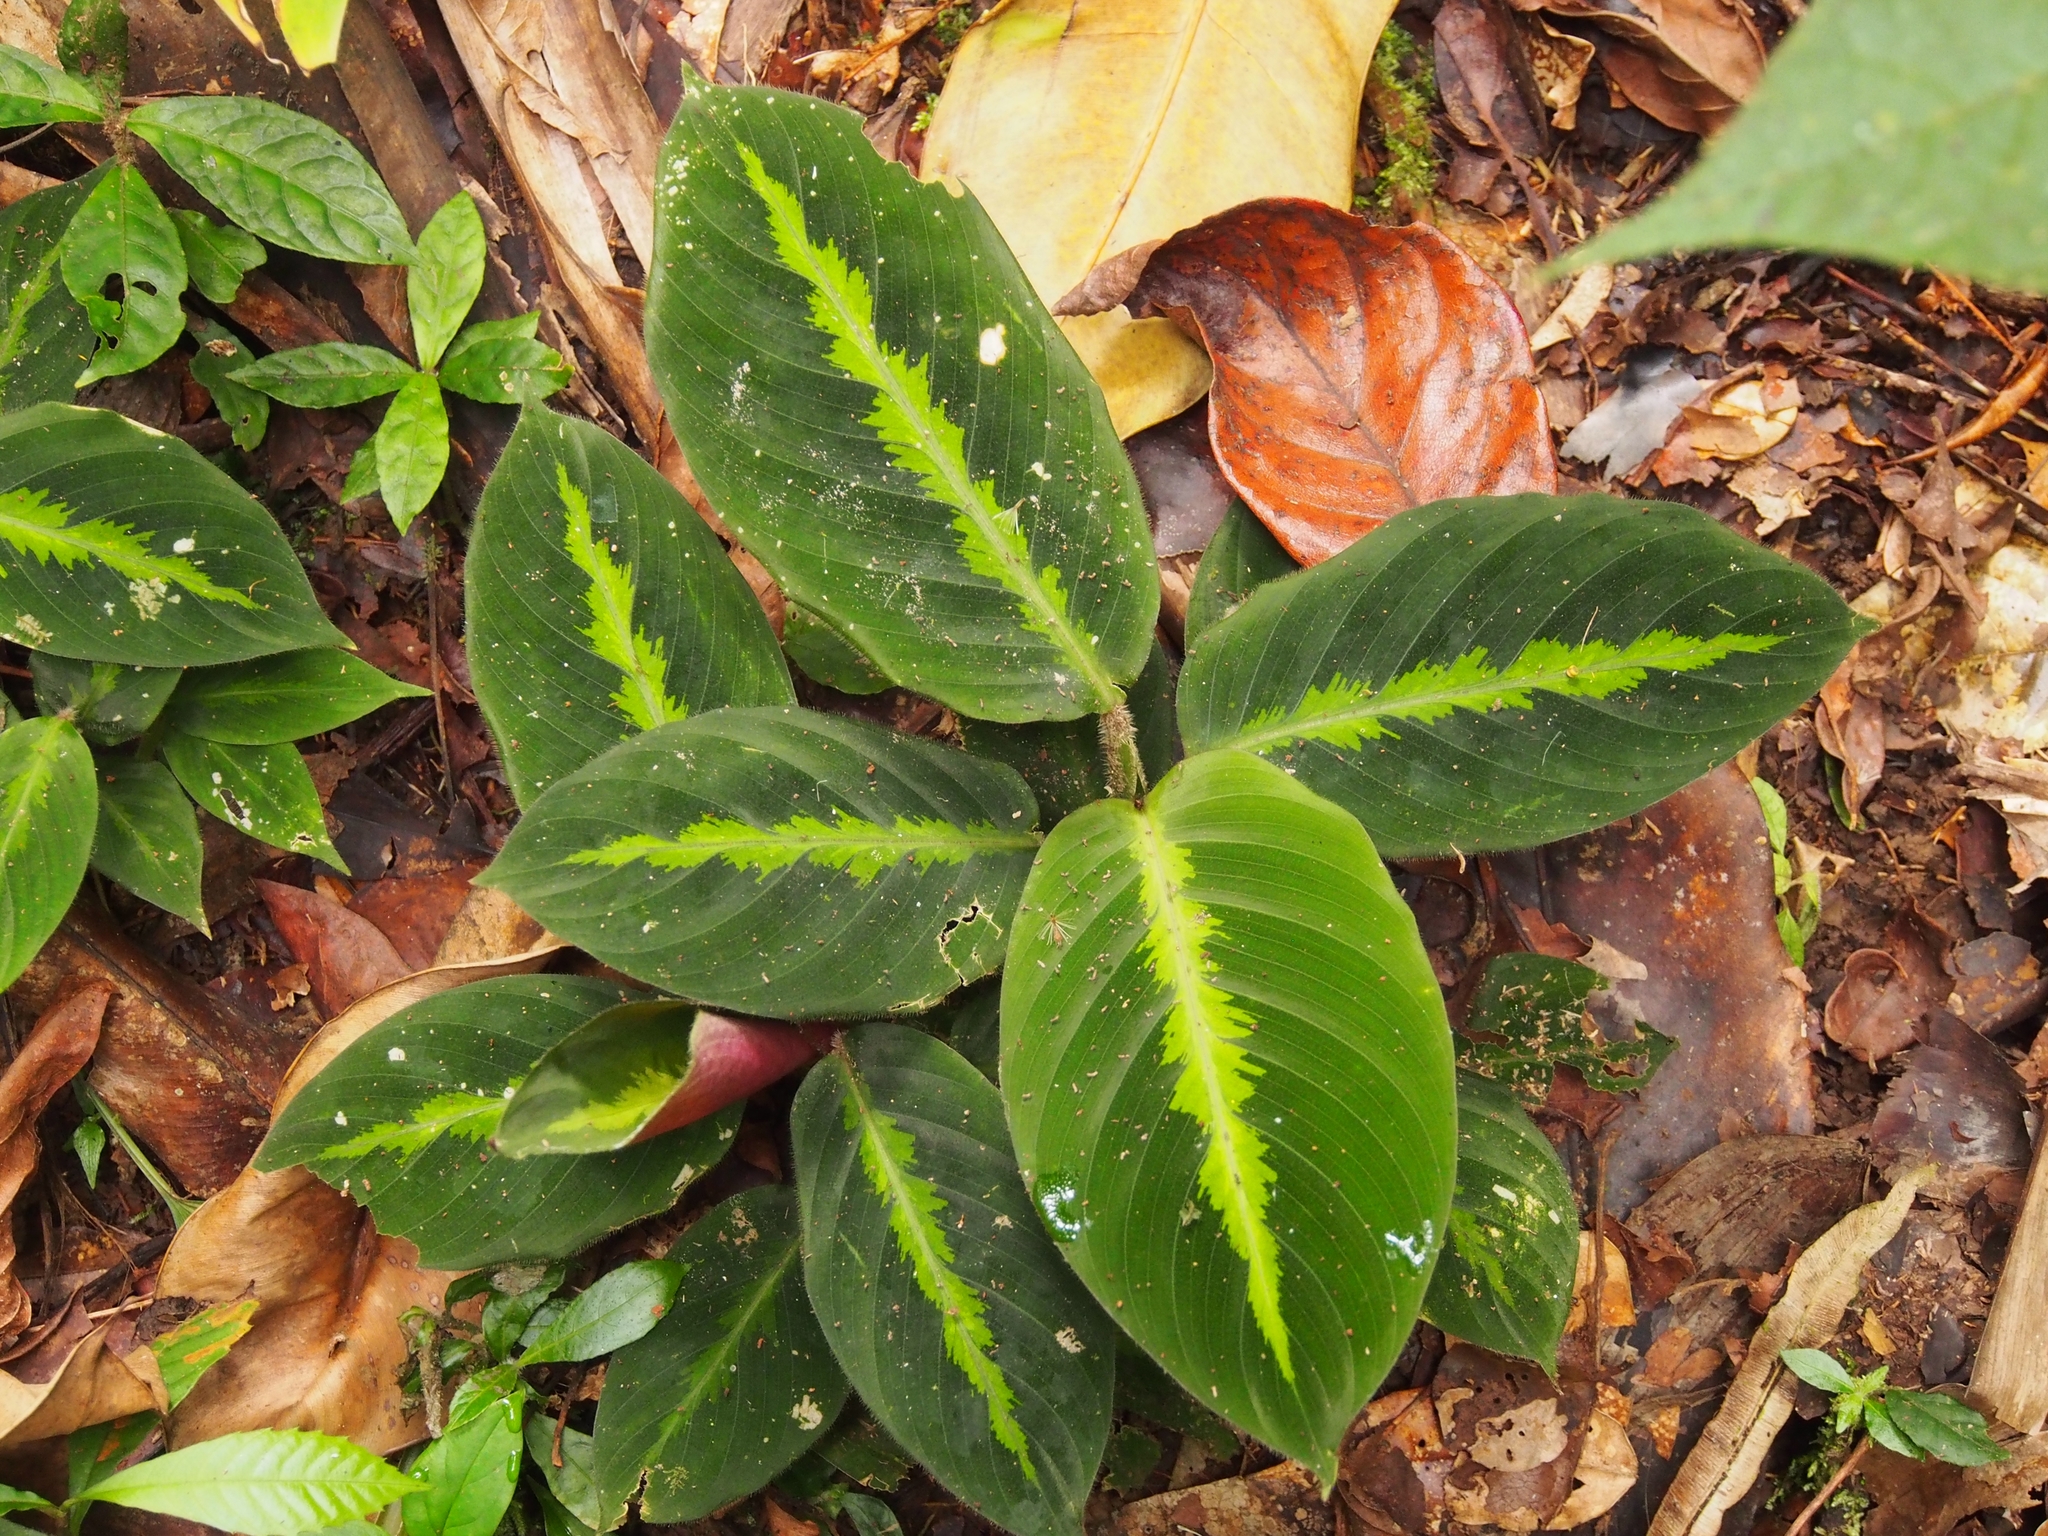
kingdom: Plantae
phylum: Tracheophyta
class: Liliopsida
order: Zingiberales
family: Marantaceae
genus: Goeppertia
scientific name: Goeppertia leucostachys
